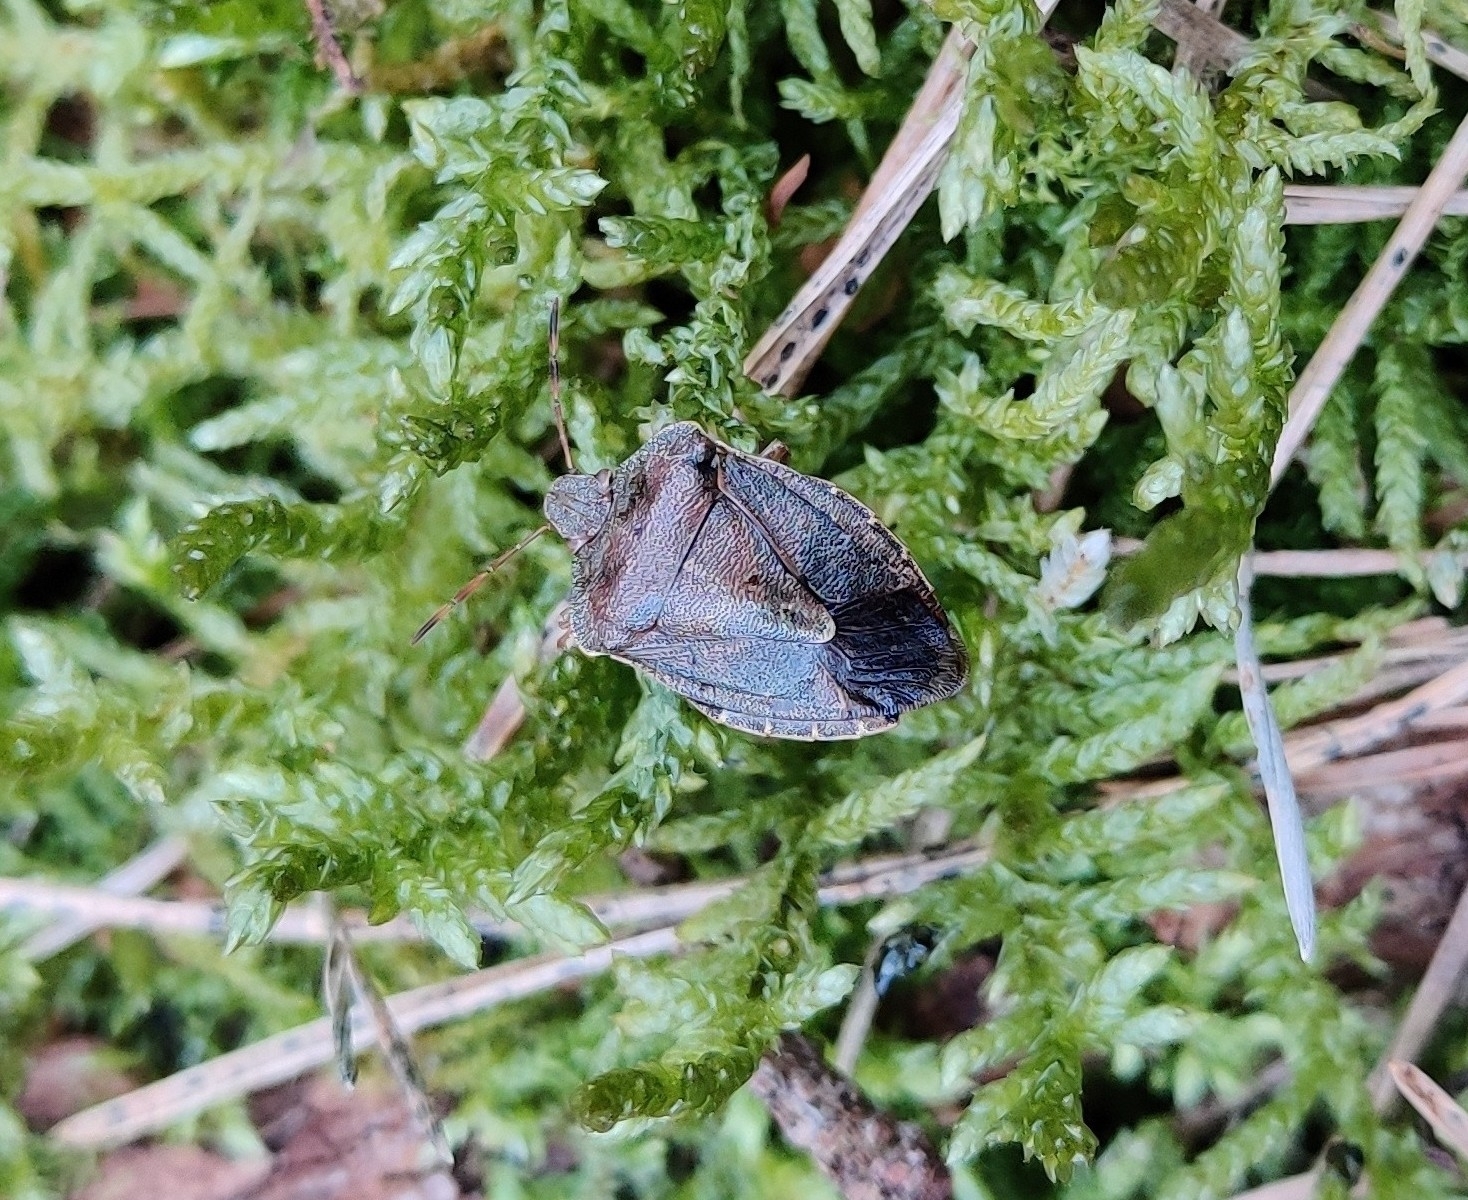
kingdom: Animalia
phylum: Arthropoda
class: Insecta
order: Hemiptera
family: Pentatomidae
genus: Palomena
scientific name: Palomena prasina
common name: Green shieldbug
